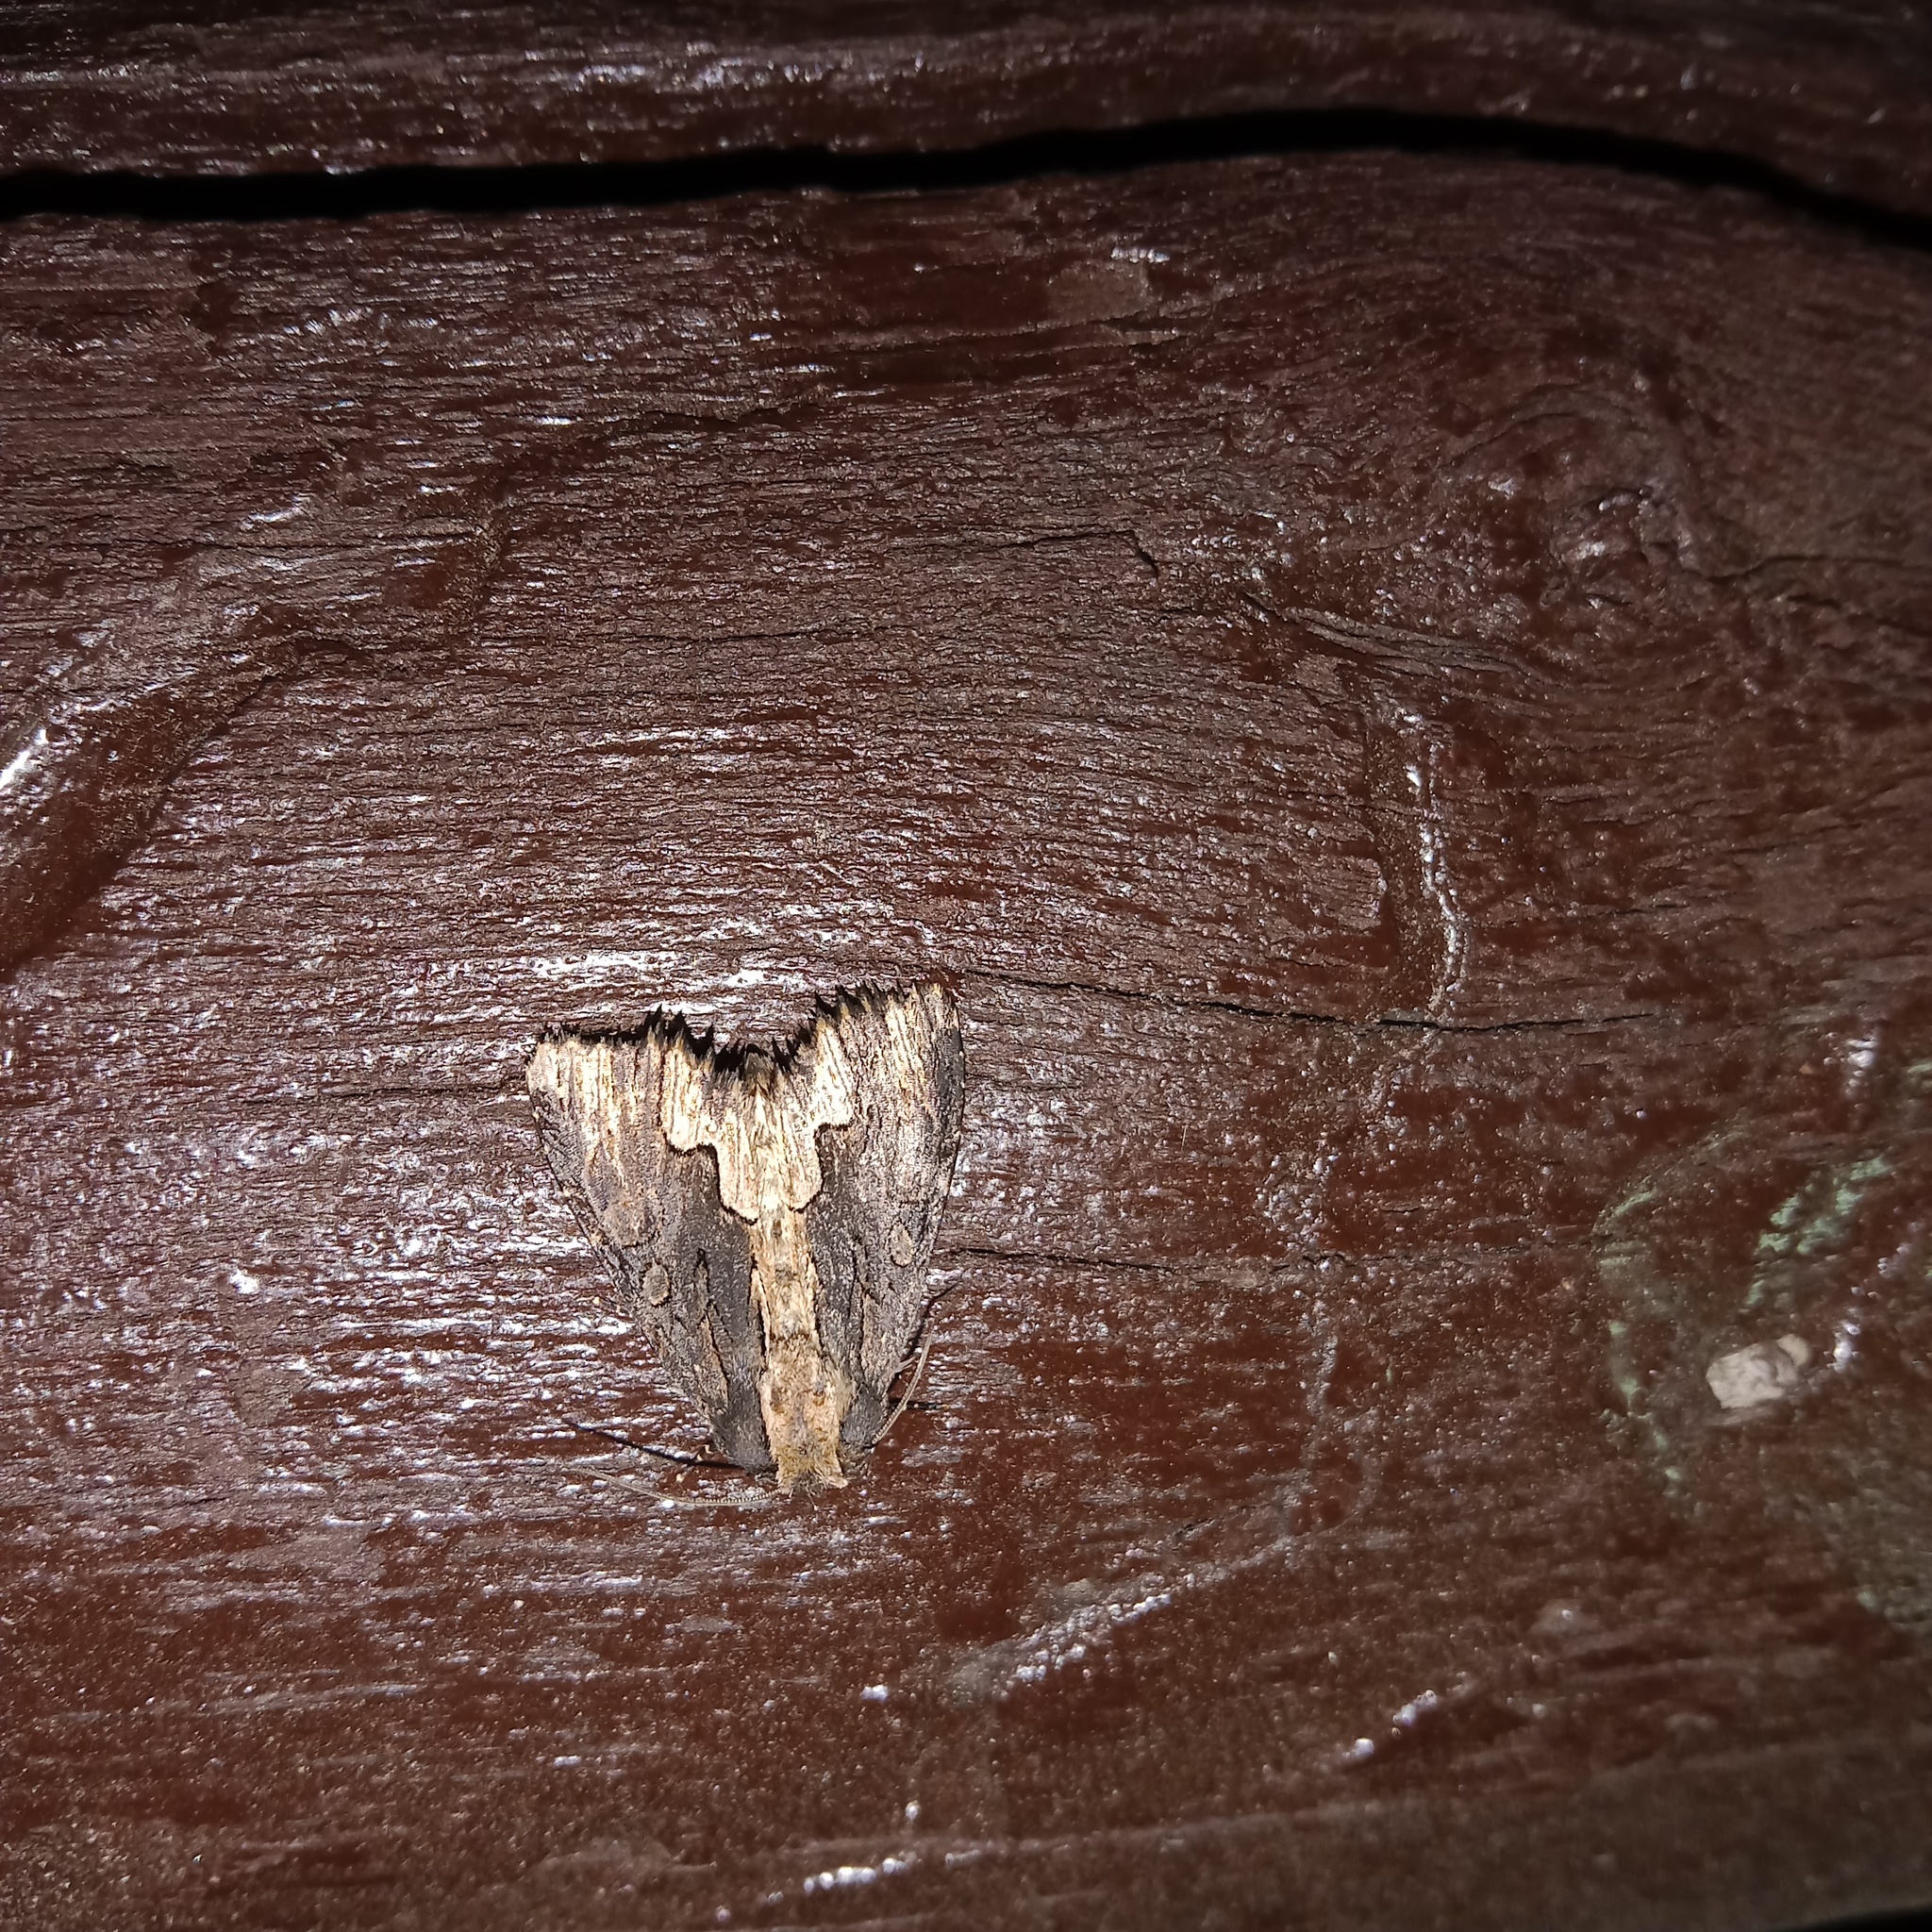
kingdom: Animalia
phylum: Arthropoda
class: Insecta
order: Lepidoptera
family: Noctuidae
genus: Dypterygia
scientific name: Dypterygia scabriuscula
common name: Bird's wing
